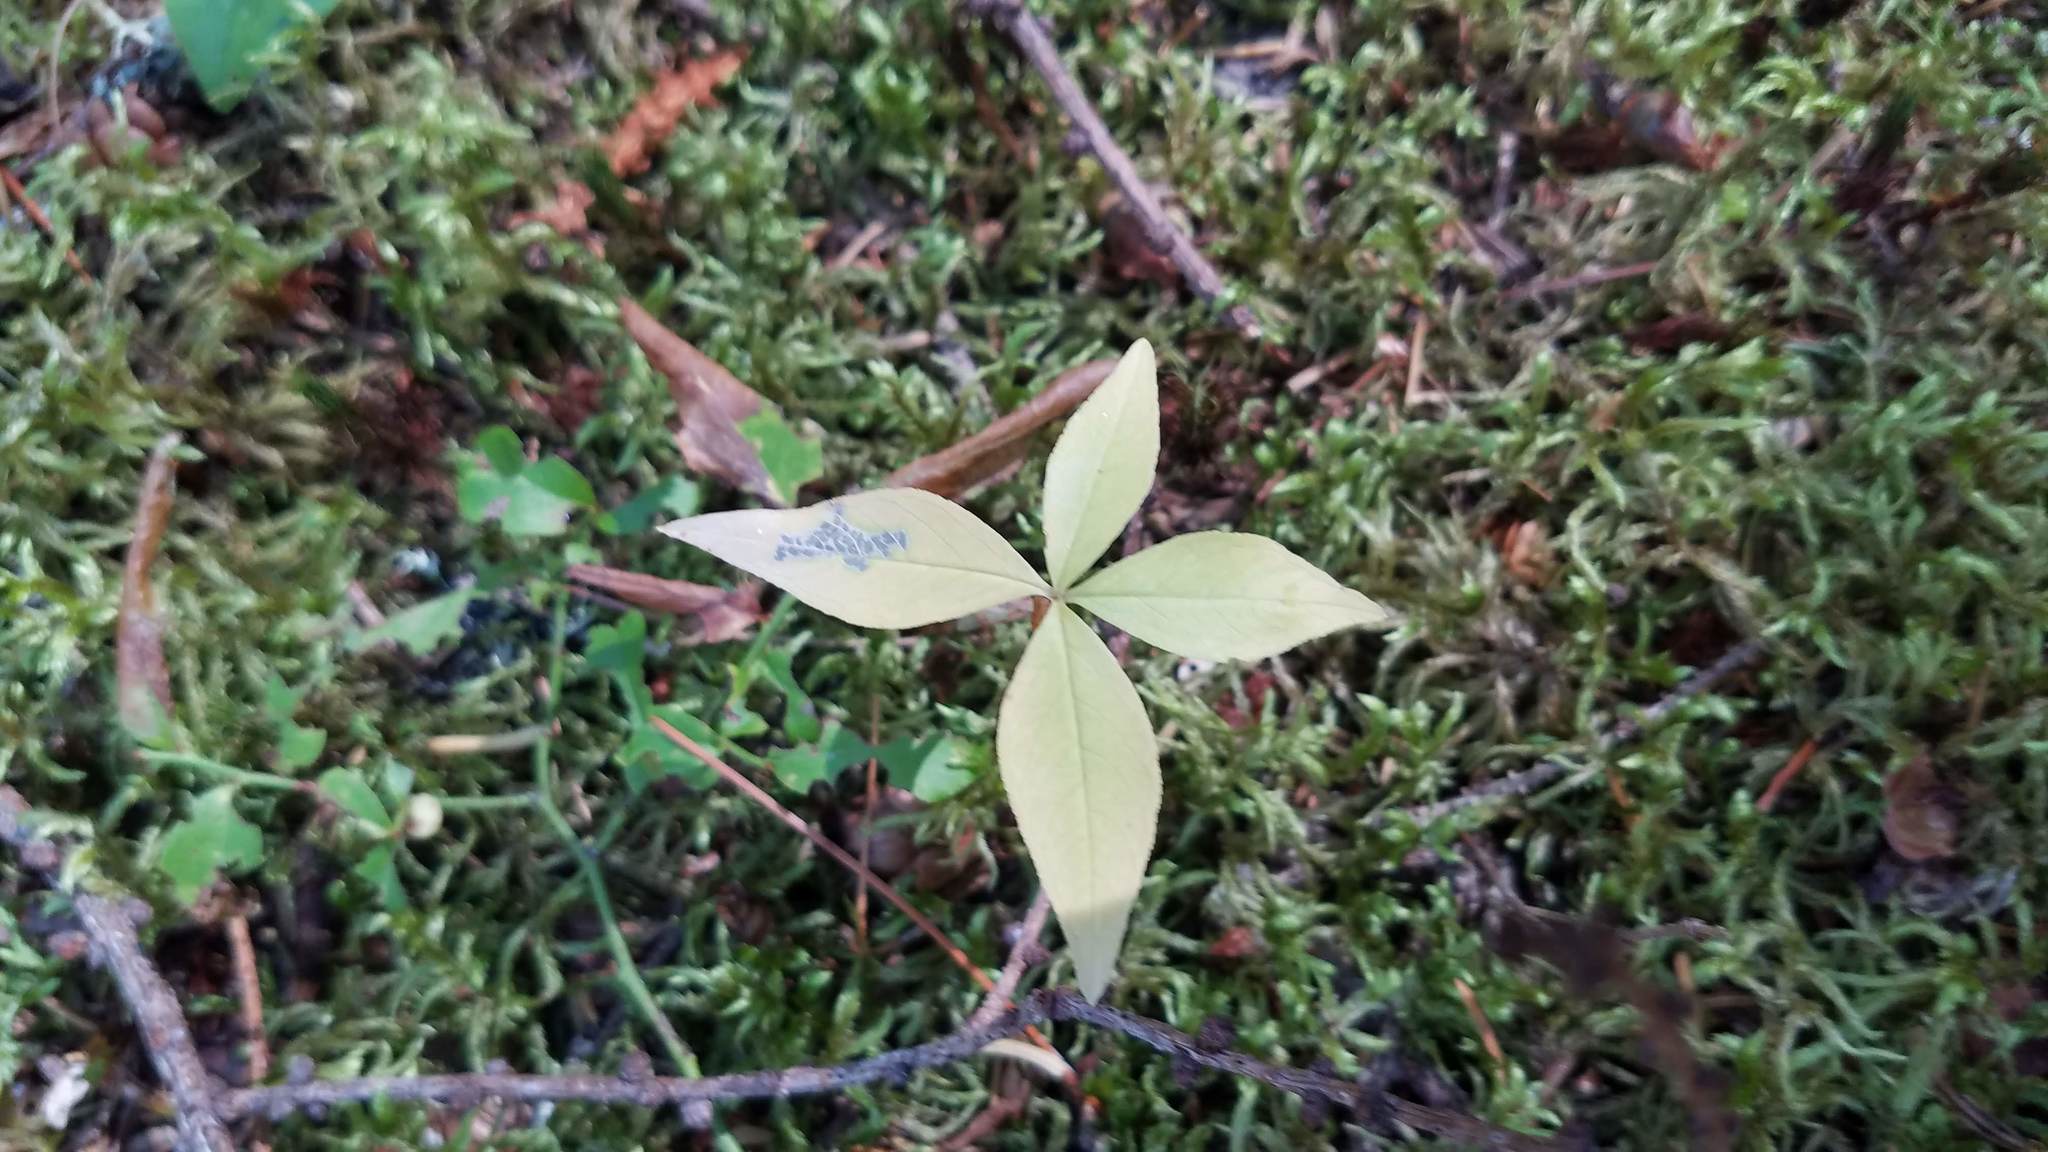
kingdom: Plantae
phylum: Tracheophyta
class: Magnoliopsida
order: Ericales
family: Primulaceae
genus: Lysimachia
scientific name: Lysimachia borealis
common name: American starflower
